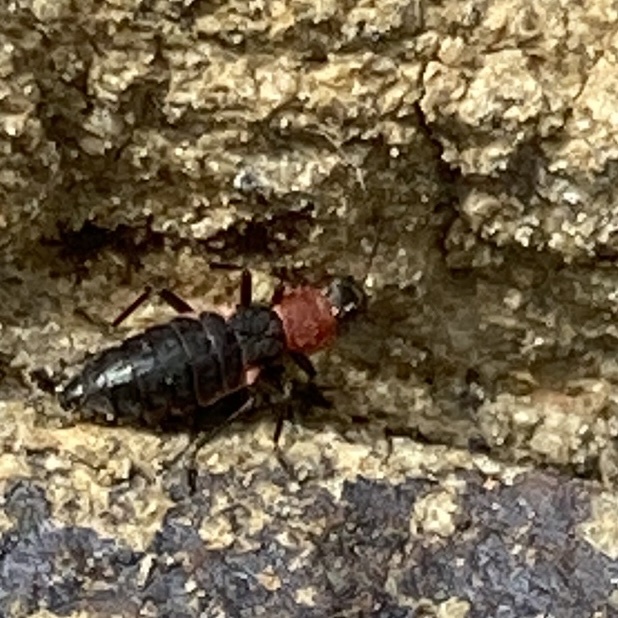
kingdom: Animalia
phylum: Arthropoda
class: Insecta
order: Coleoptera
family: Melyridae
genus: Endeodes
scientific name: Endeodes collaris
